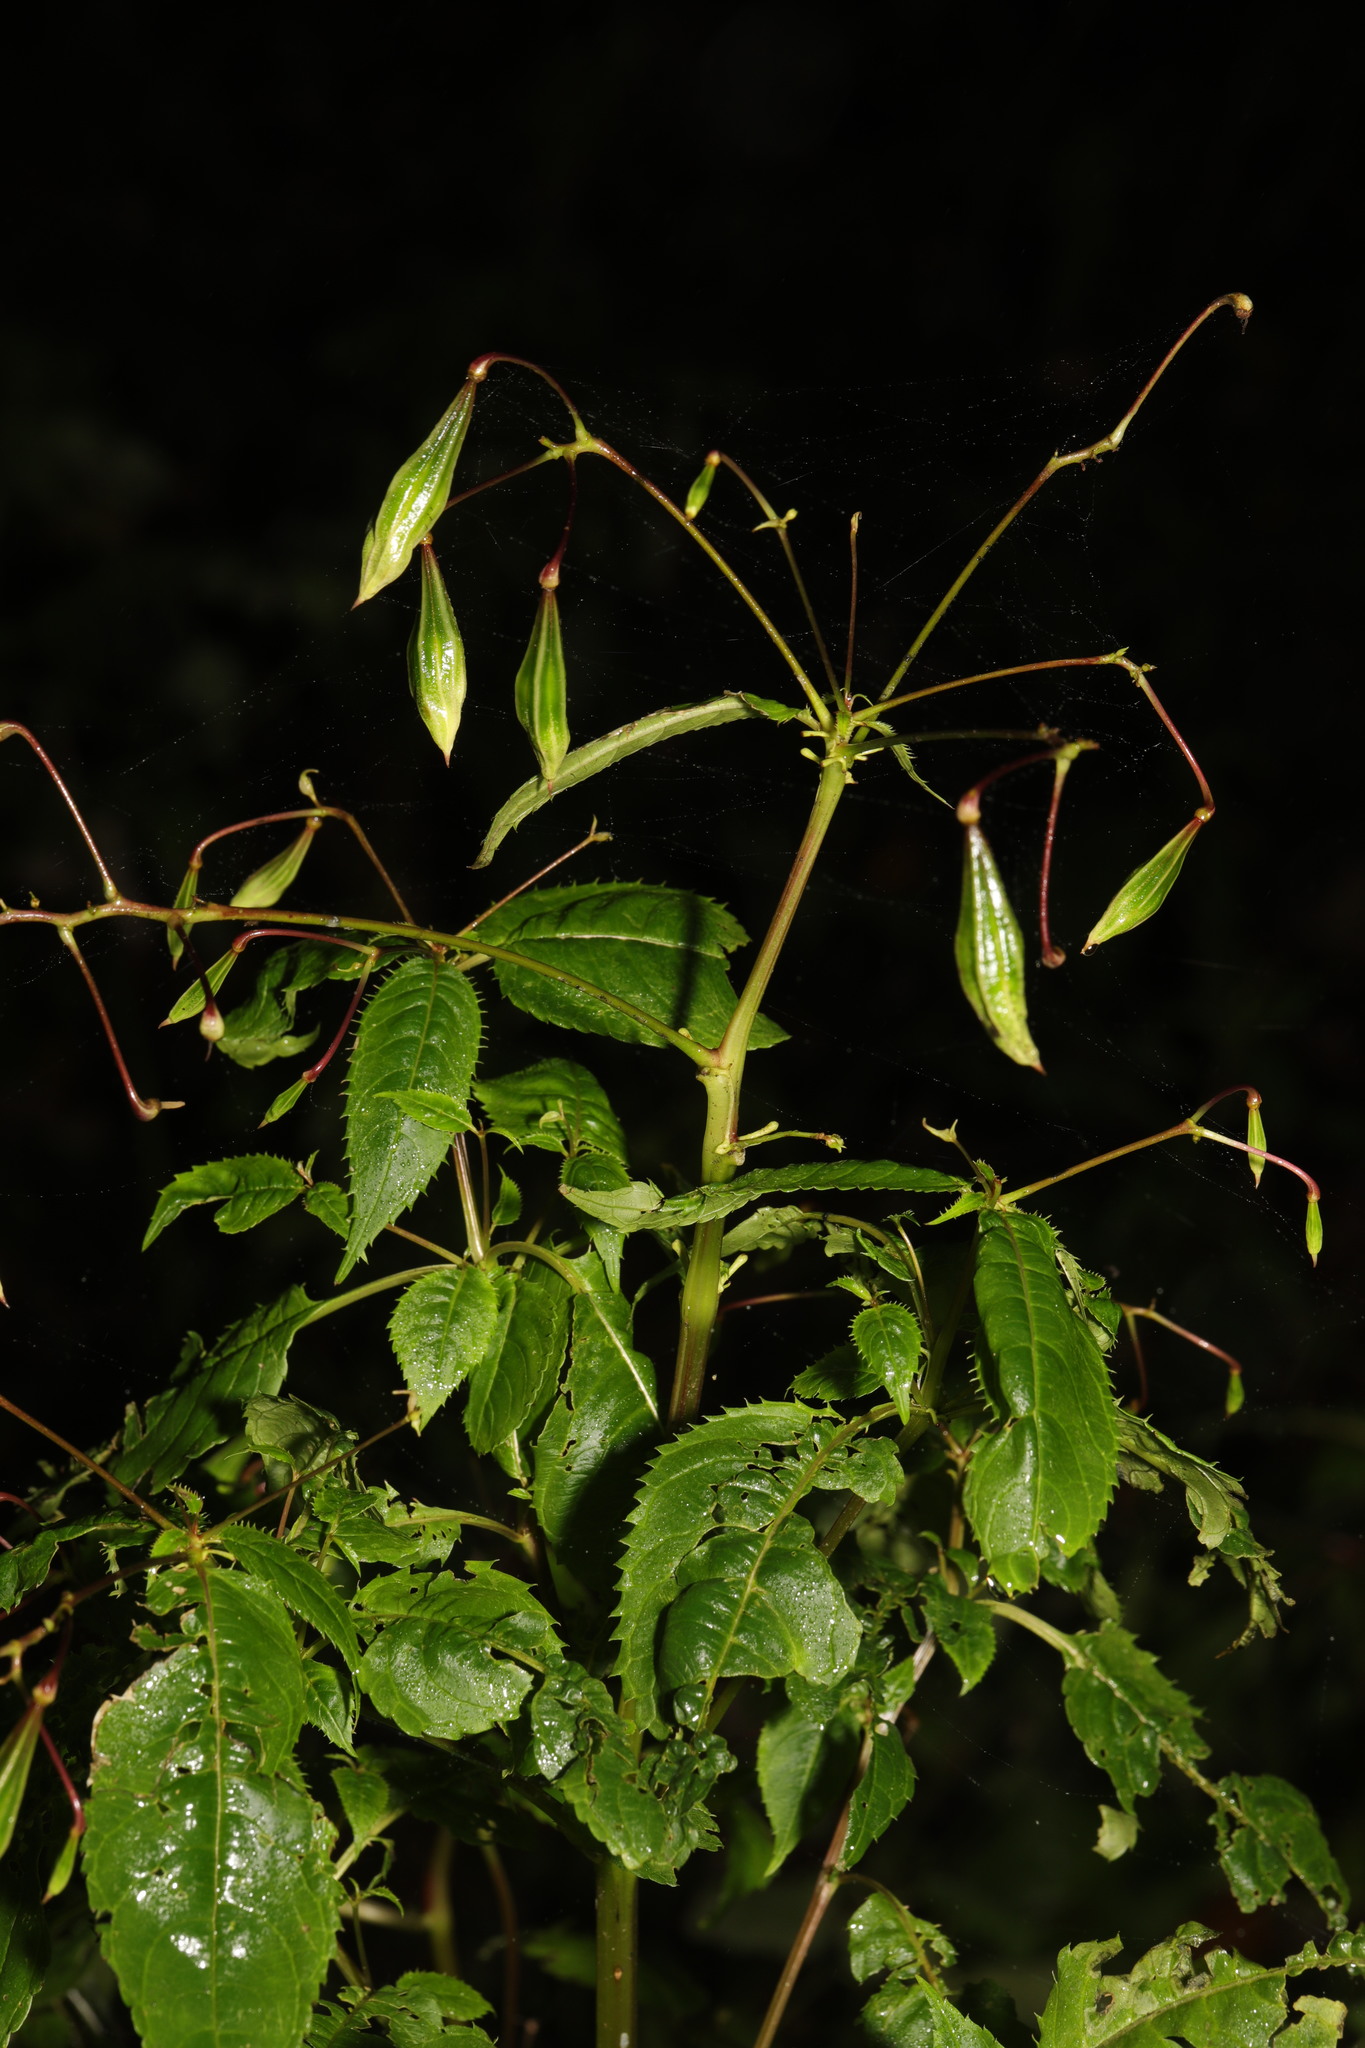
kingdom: Plantae
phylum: Tracheophyta
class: Magnoliopsida
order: Ericales
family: Balsaminaceae
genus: Impatiens
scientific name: Impatiens glandulifera
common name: Himalayan balsam
